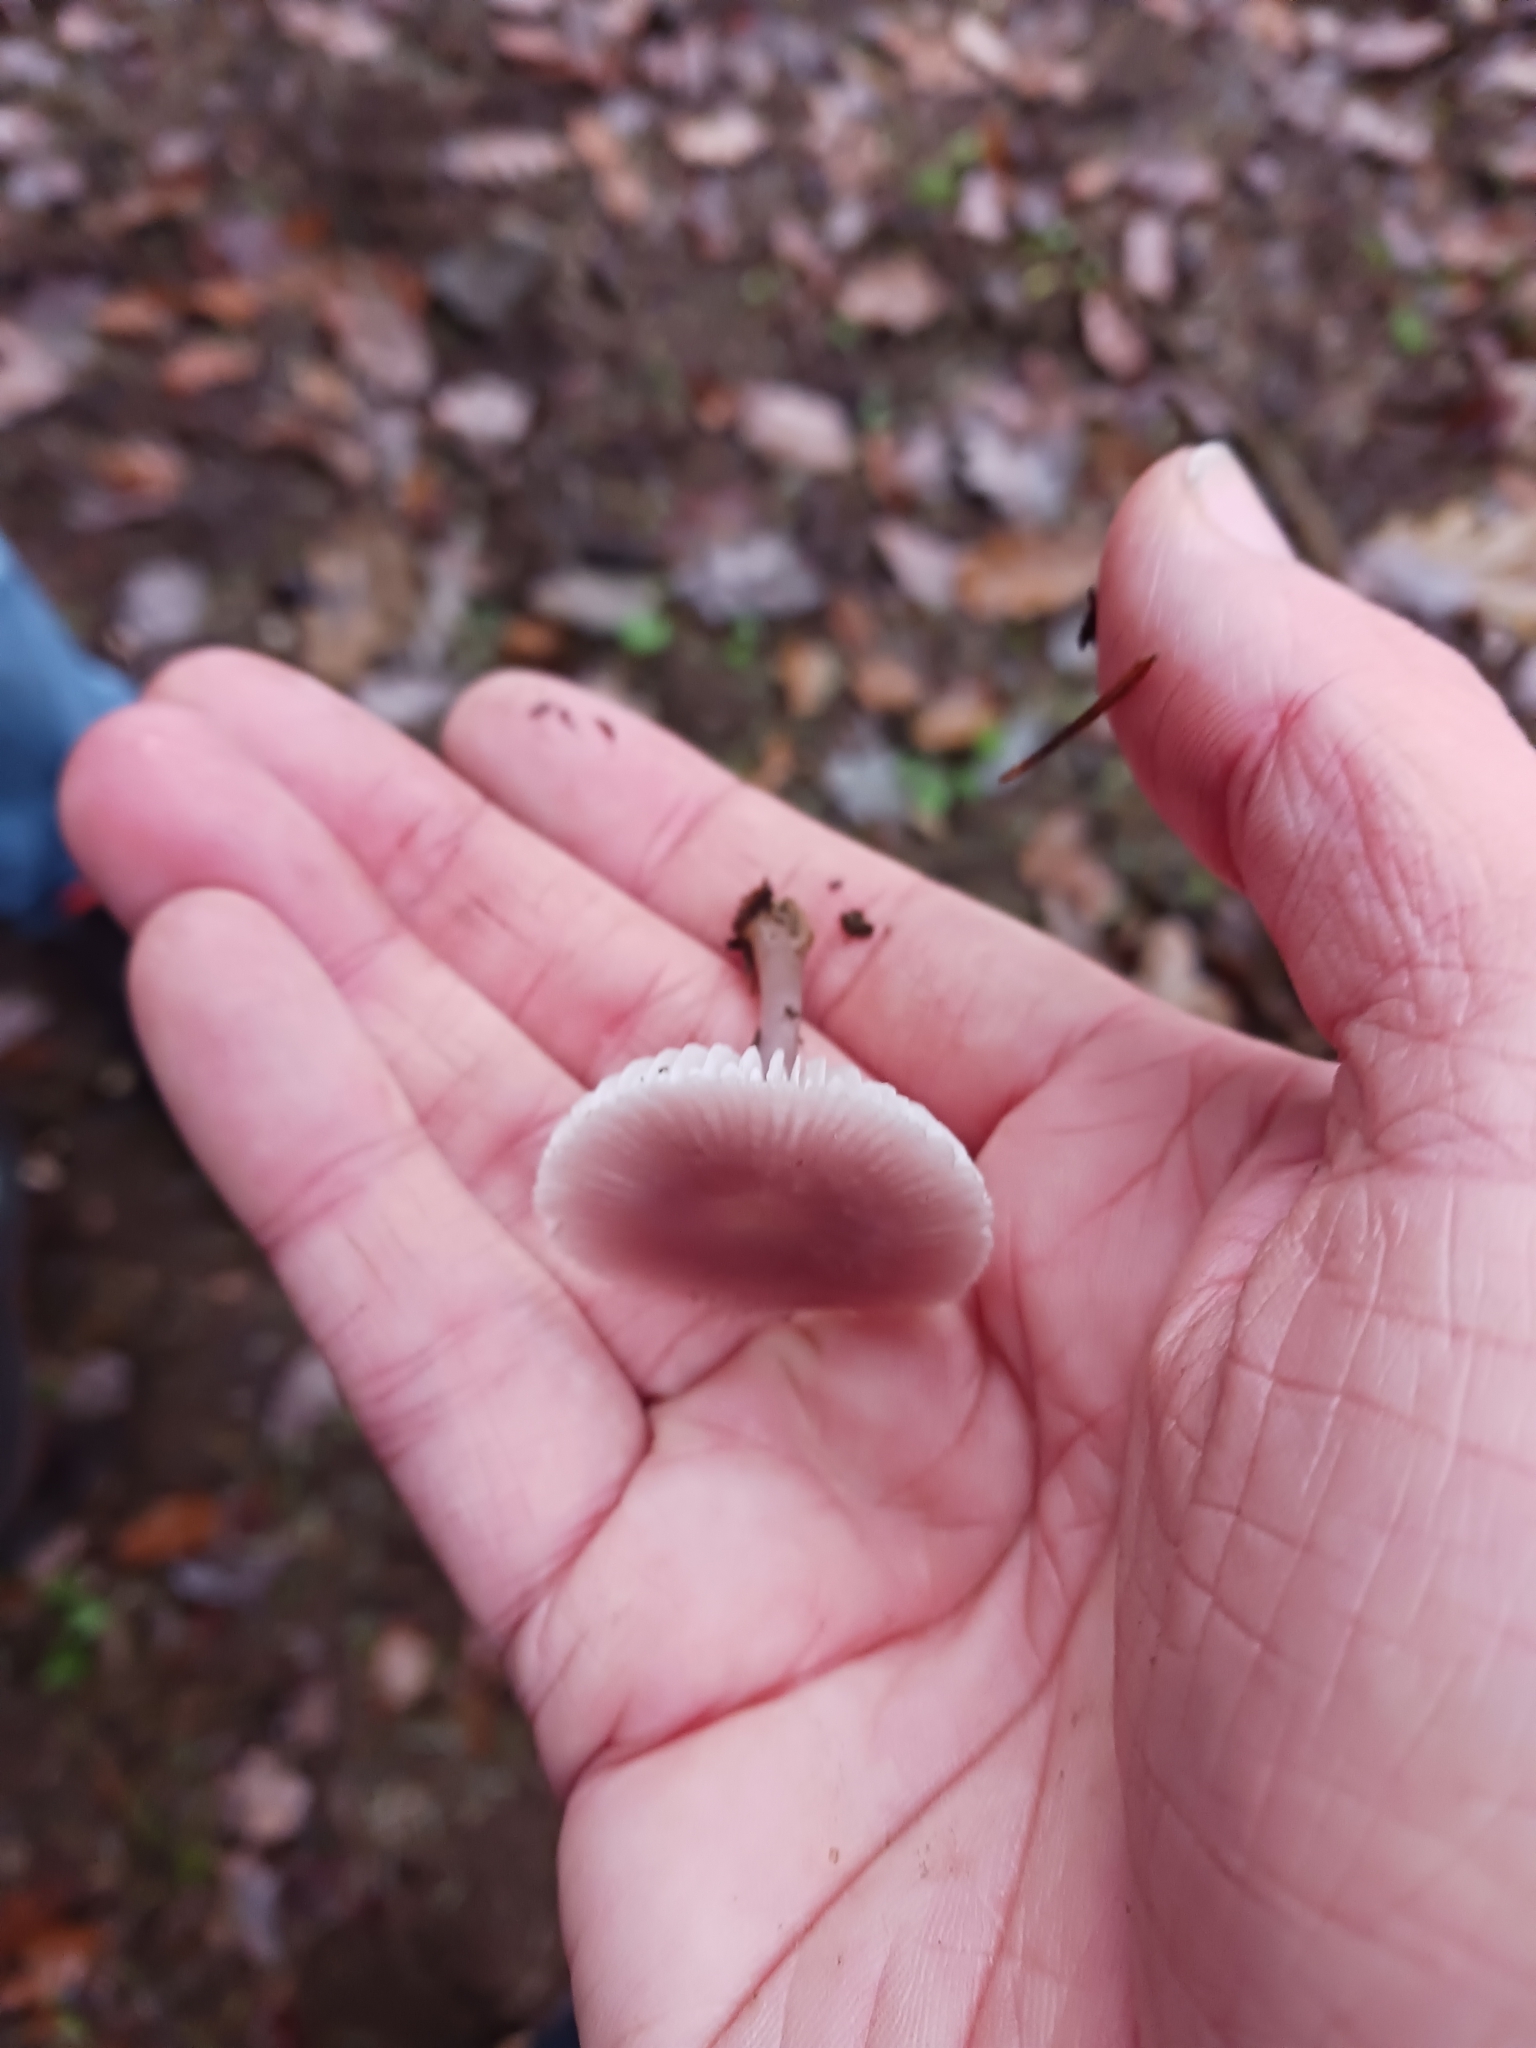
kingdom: Fungi
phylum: Basidiomycota
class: Agaricomycetes
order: Agaricales
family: Mycenaceae
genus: Mycena
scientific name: Mycena pura
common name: Lilac bonnet
